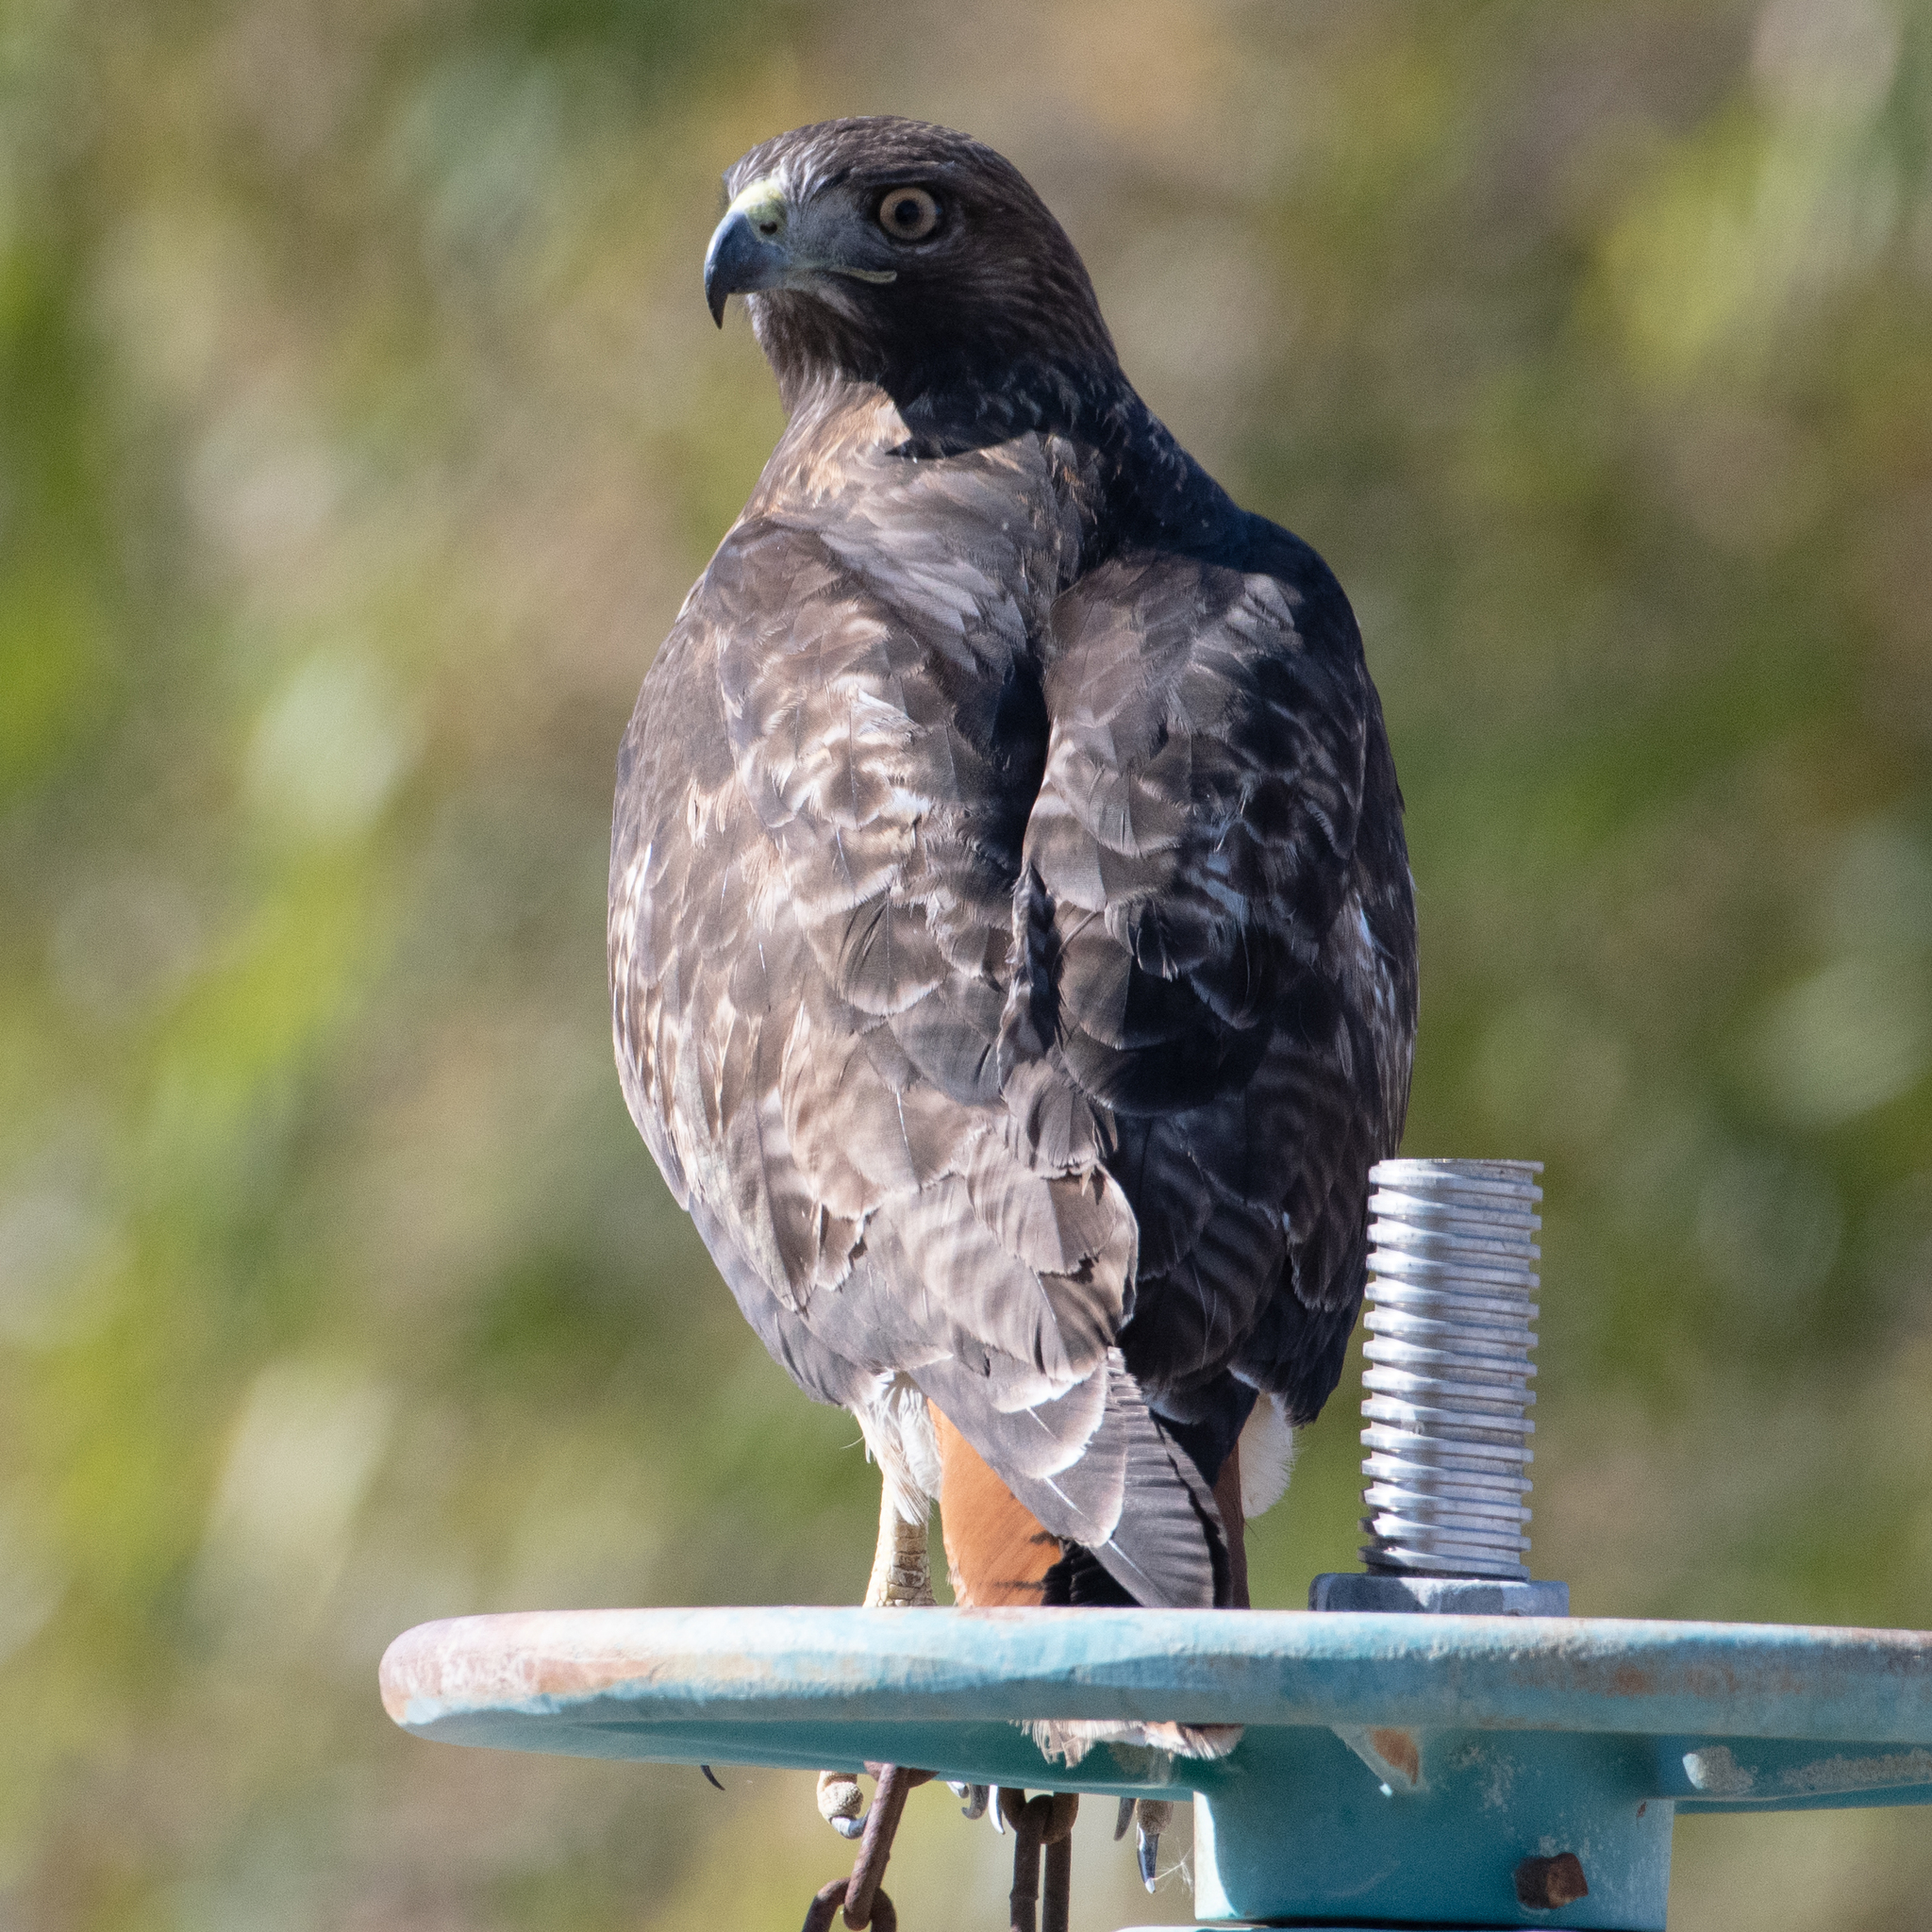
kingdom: Animalia
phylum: Chordata
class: Aves
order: Accipitriformes
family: Accipitridae
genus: Buteo
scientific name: Buteo jamaicensis
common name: Red-tailed hawk
